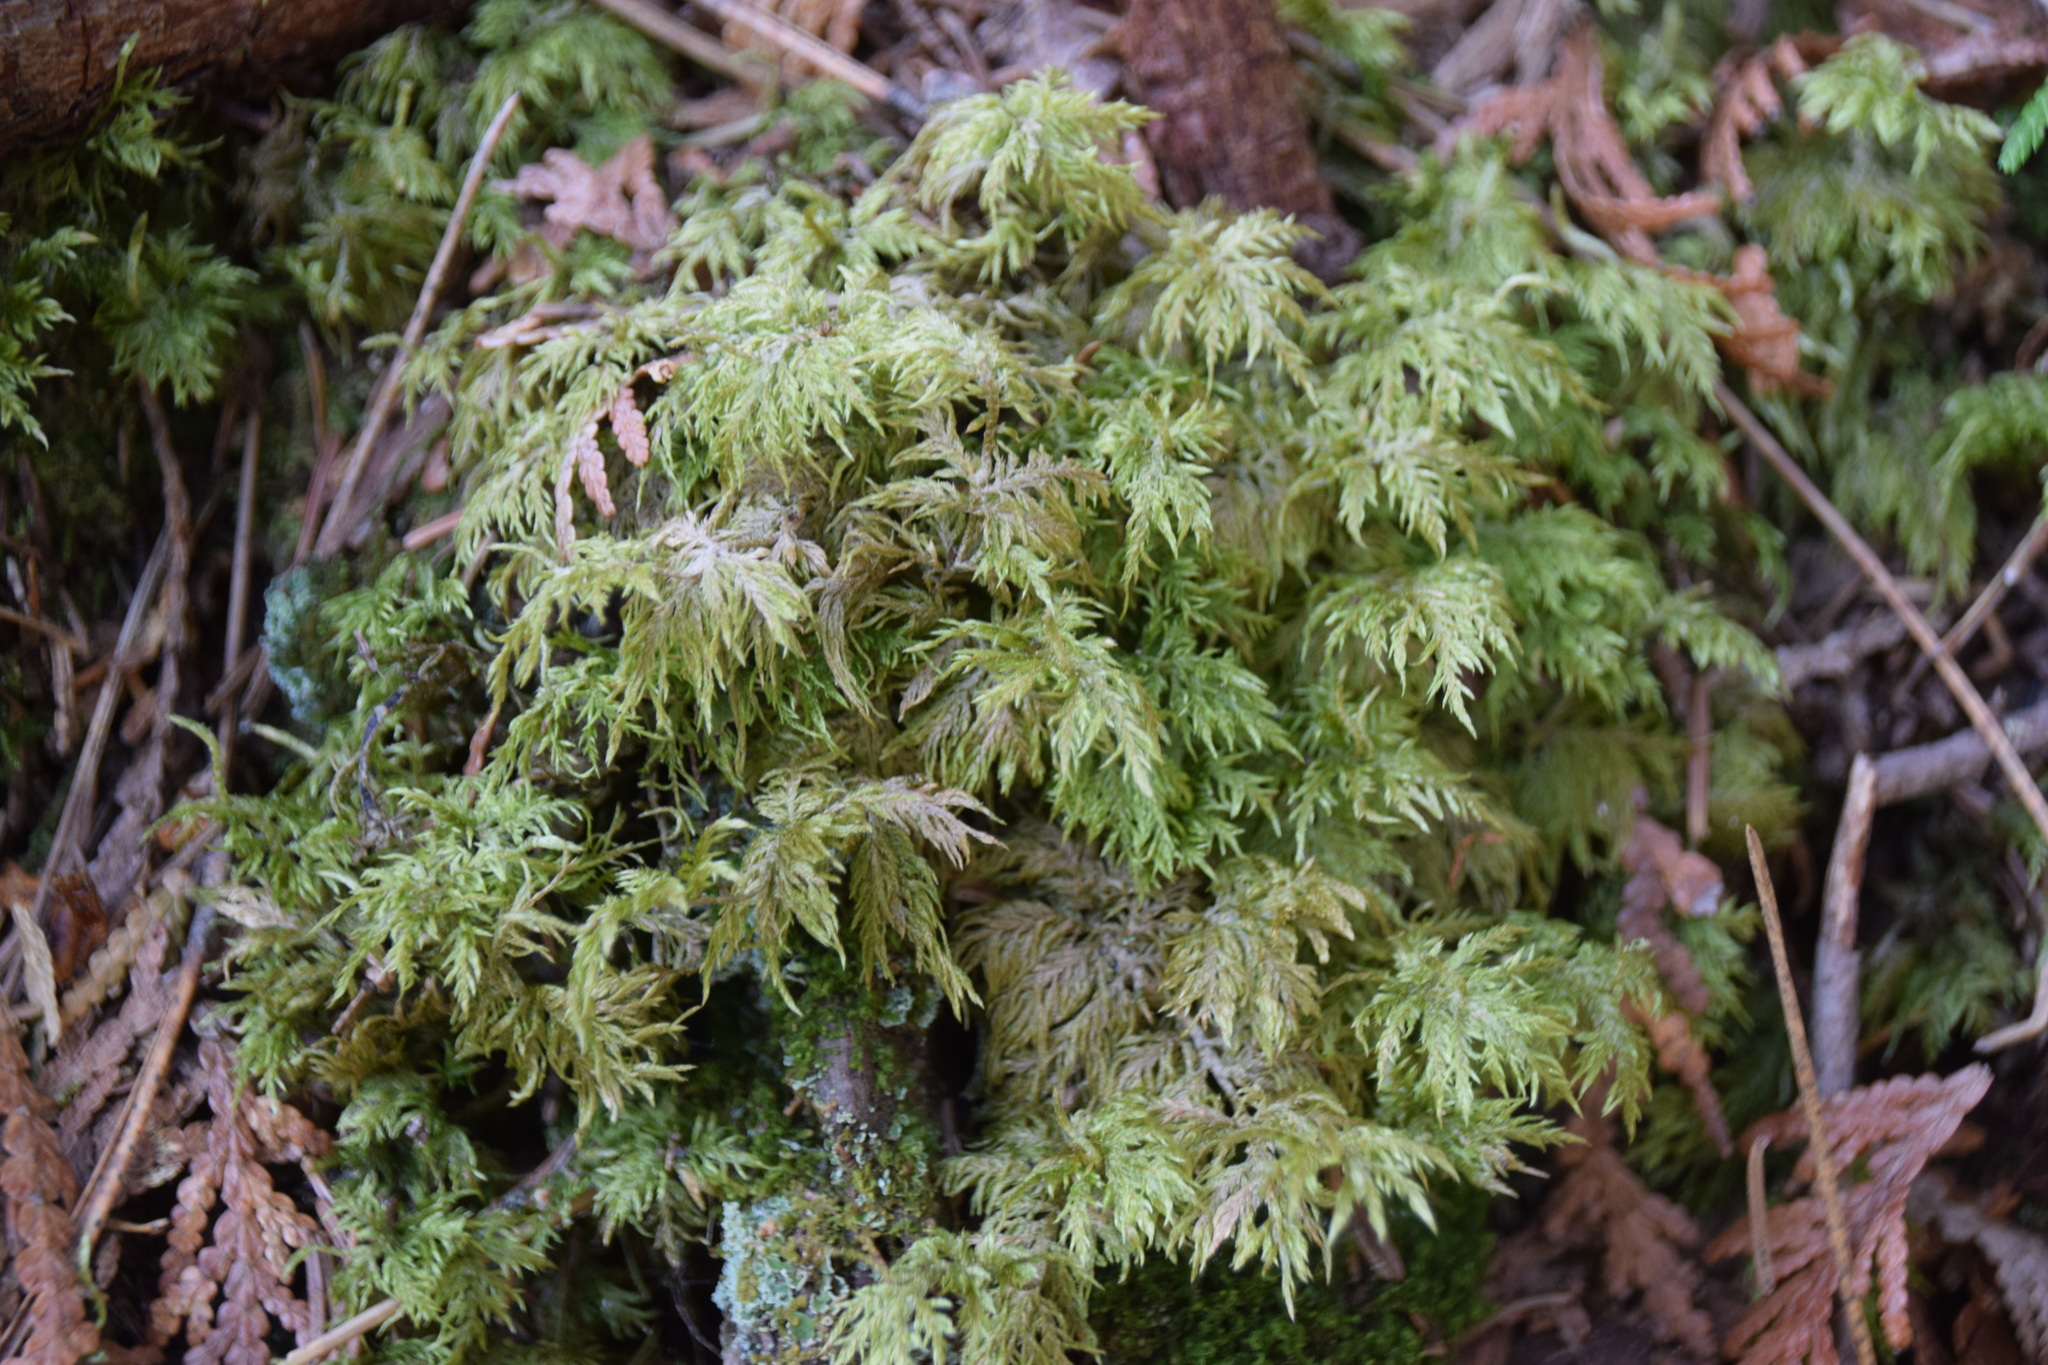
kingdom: Plantae
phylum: Bryophyta
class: Bryopsida
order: Hypnales
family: Hylocomiaceae
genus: Hylocomium
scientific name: Hylocomium splendens
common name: Stairstep moss
